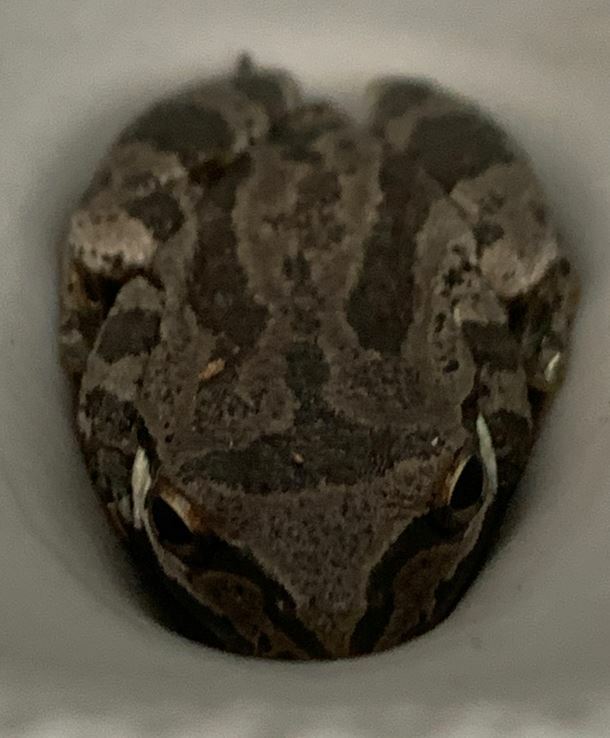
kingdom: Animalia
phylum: Chordata
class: Amphibia
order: Anura
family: Hylidae
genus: Pseudacris
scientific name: Pseudacris regilla
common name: Pacific chorus frog
